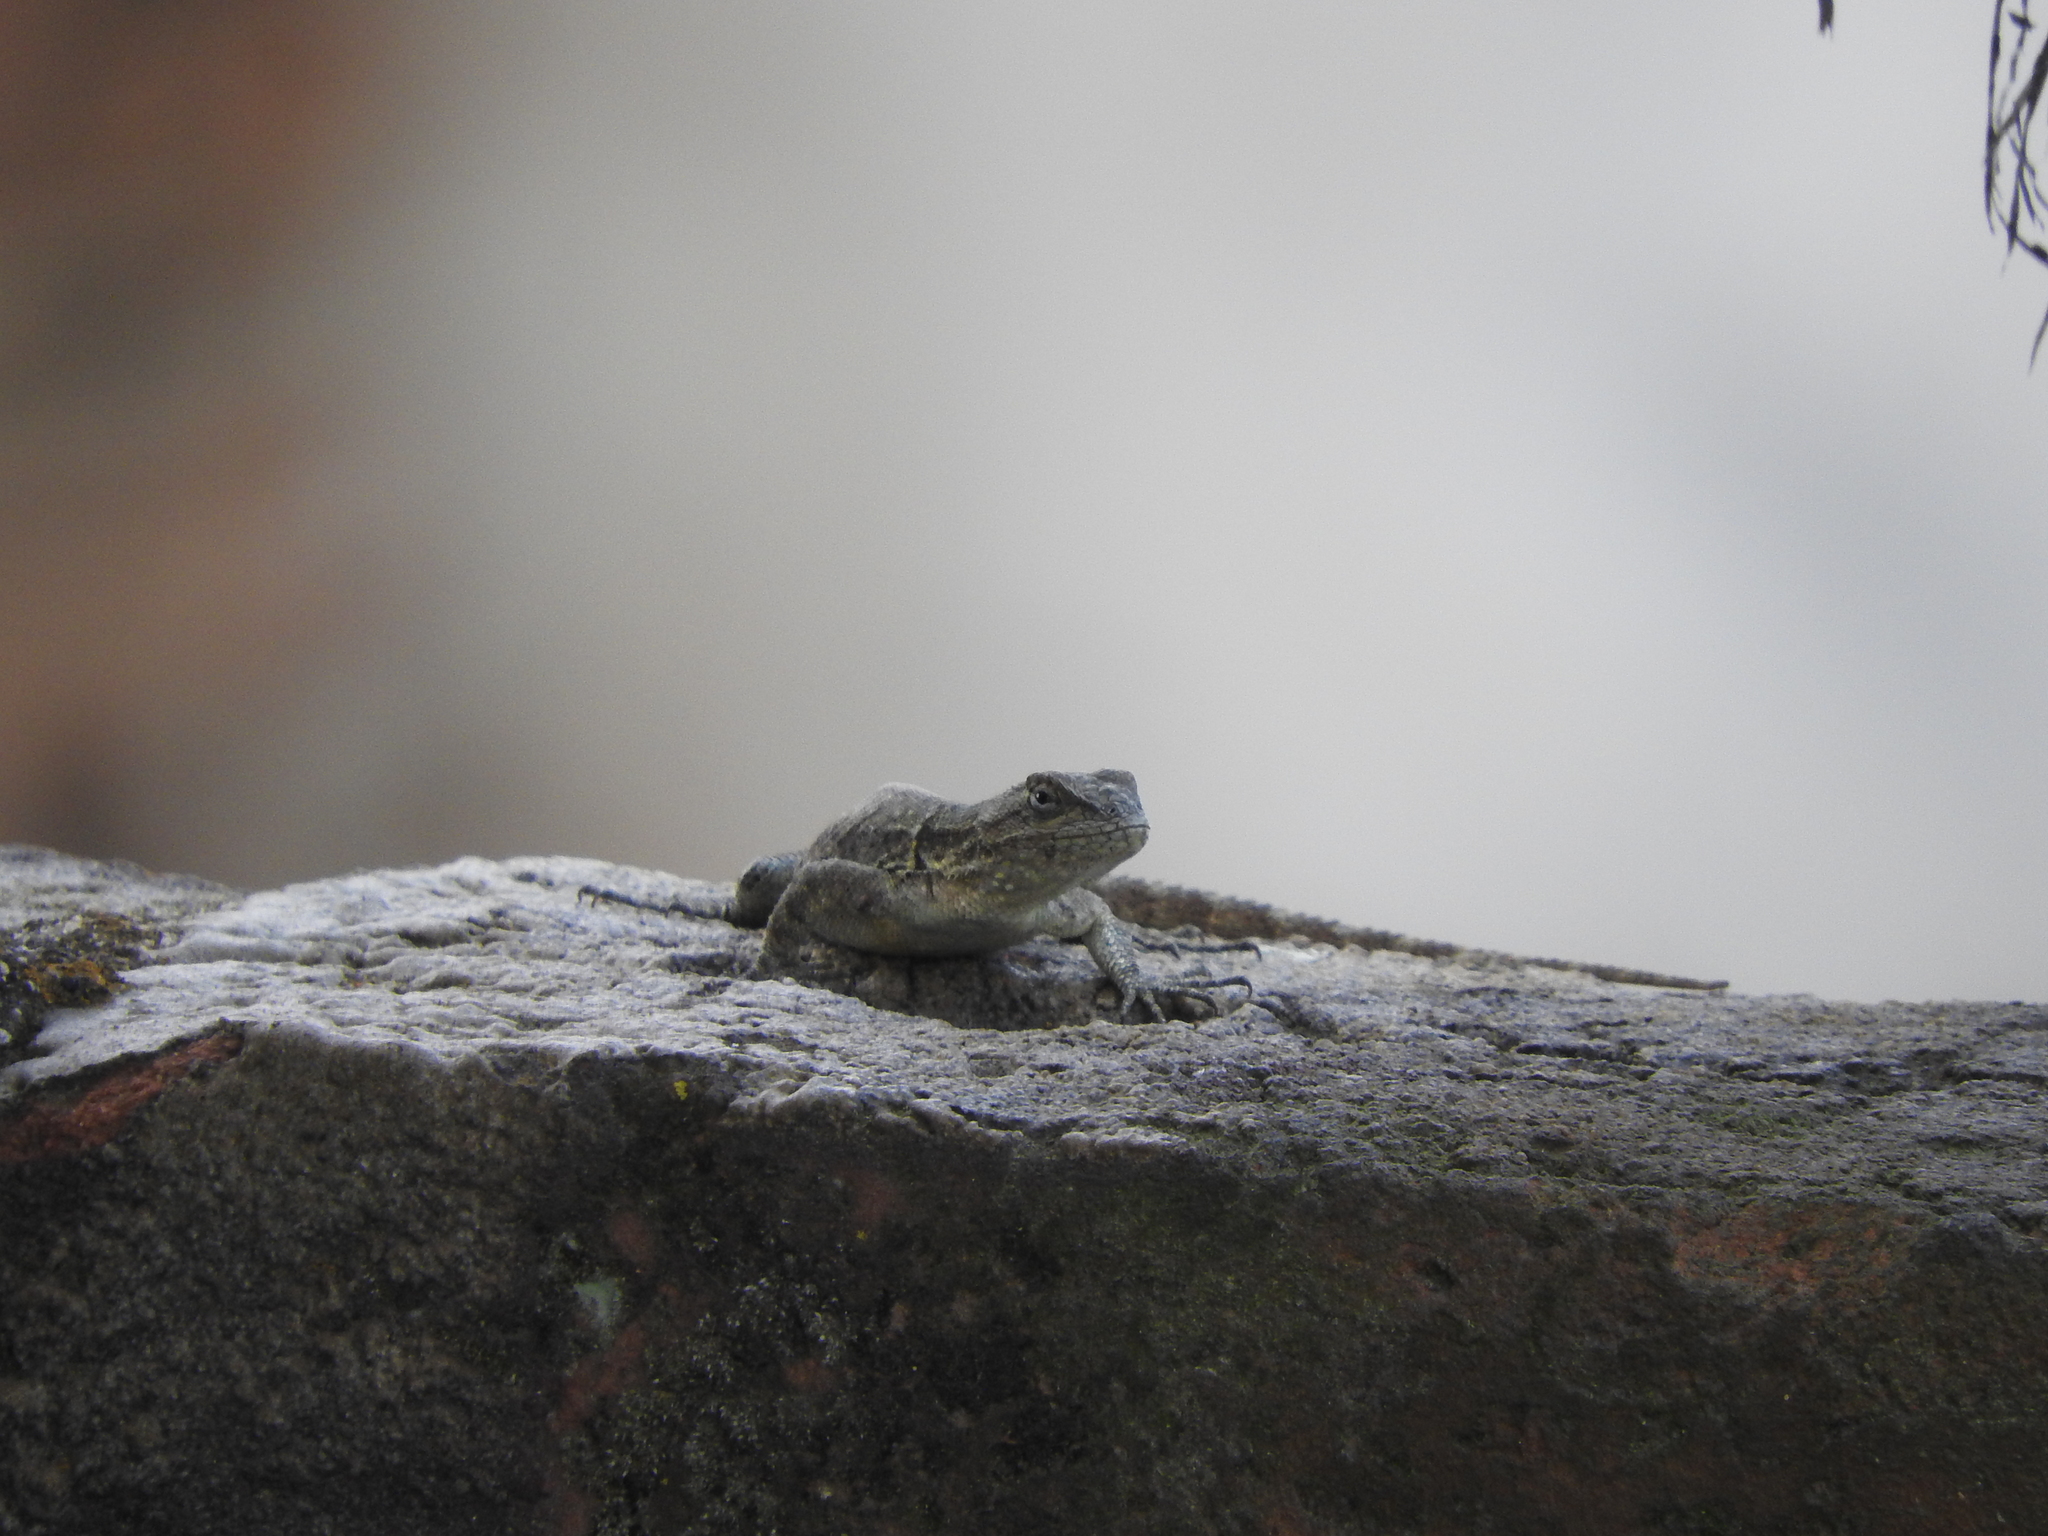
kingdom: Animalia
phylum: Chordata
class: Squamata
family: Phrynosomatidae
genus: Sceloporus
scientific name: Sceloporus grammicus
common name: Mesquite lizard
